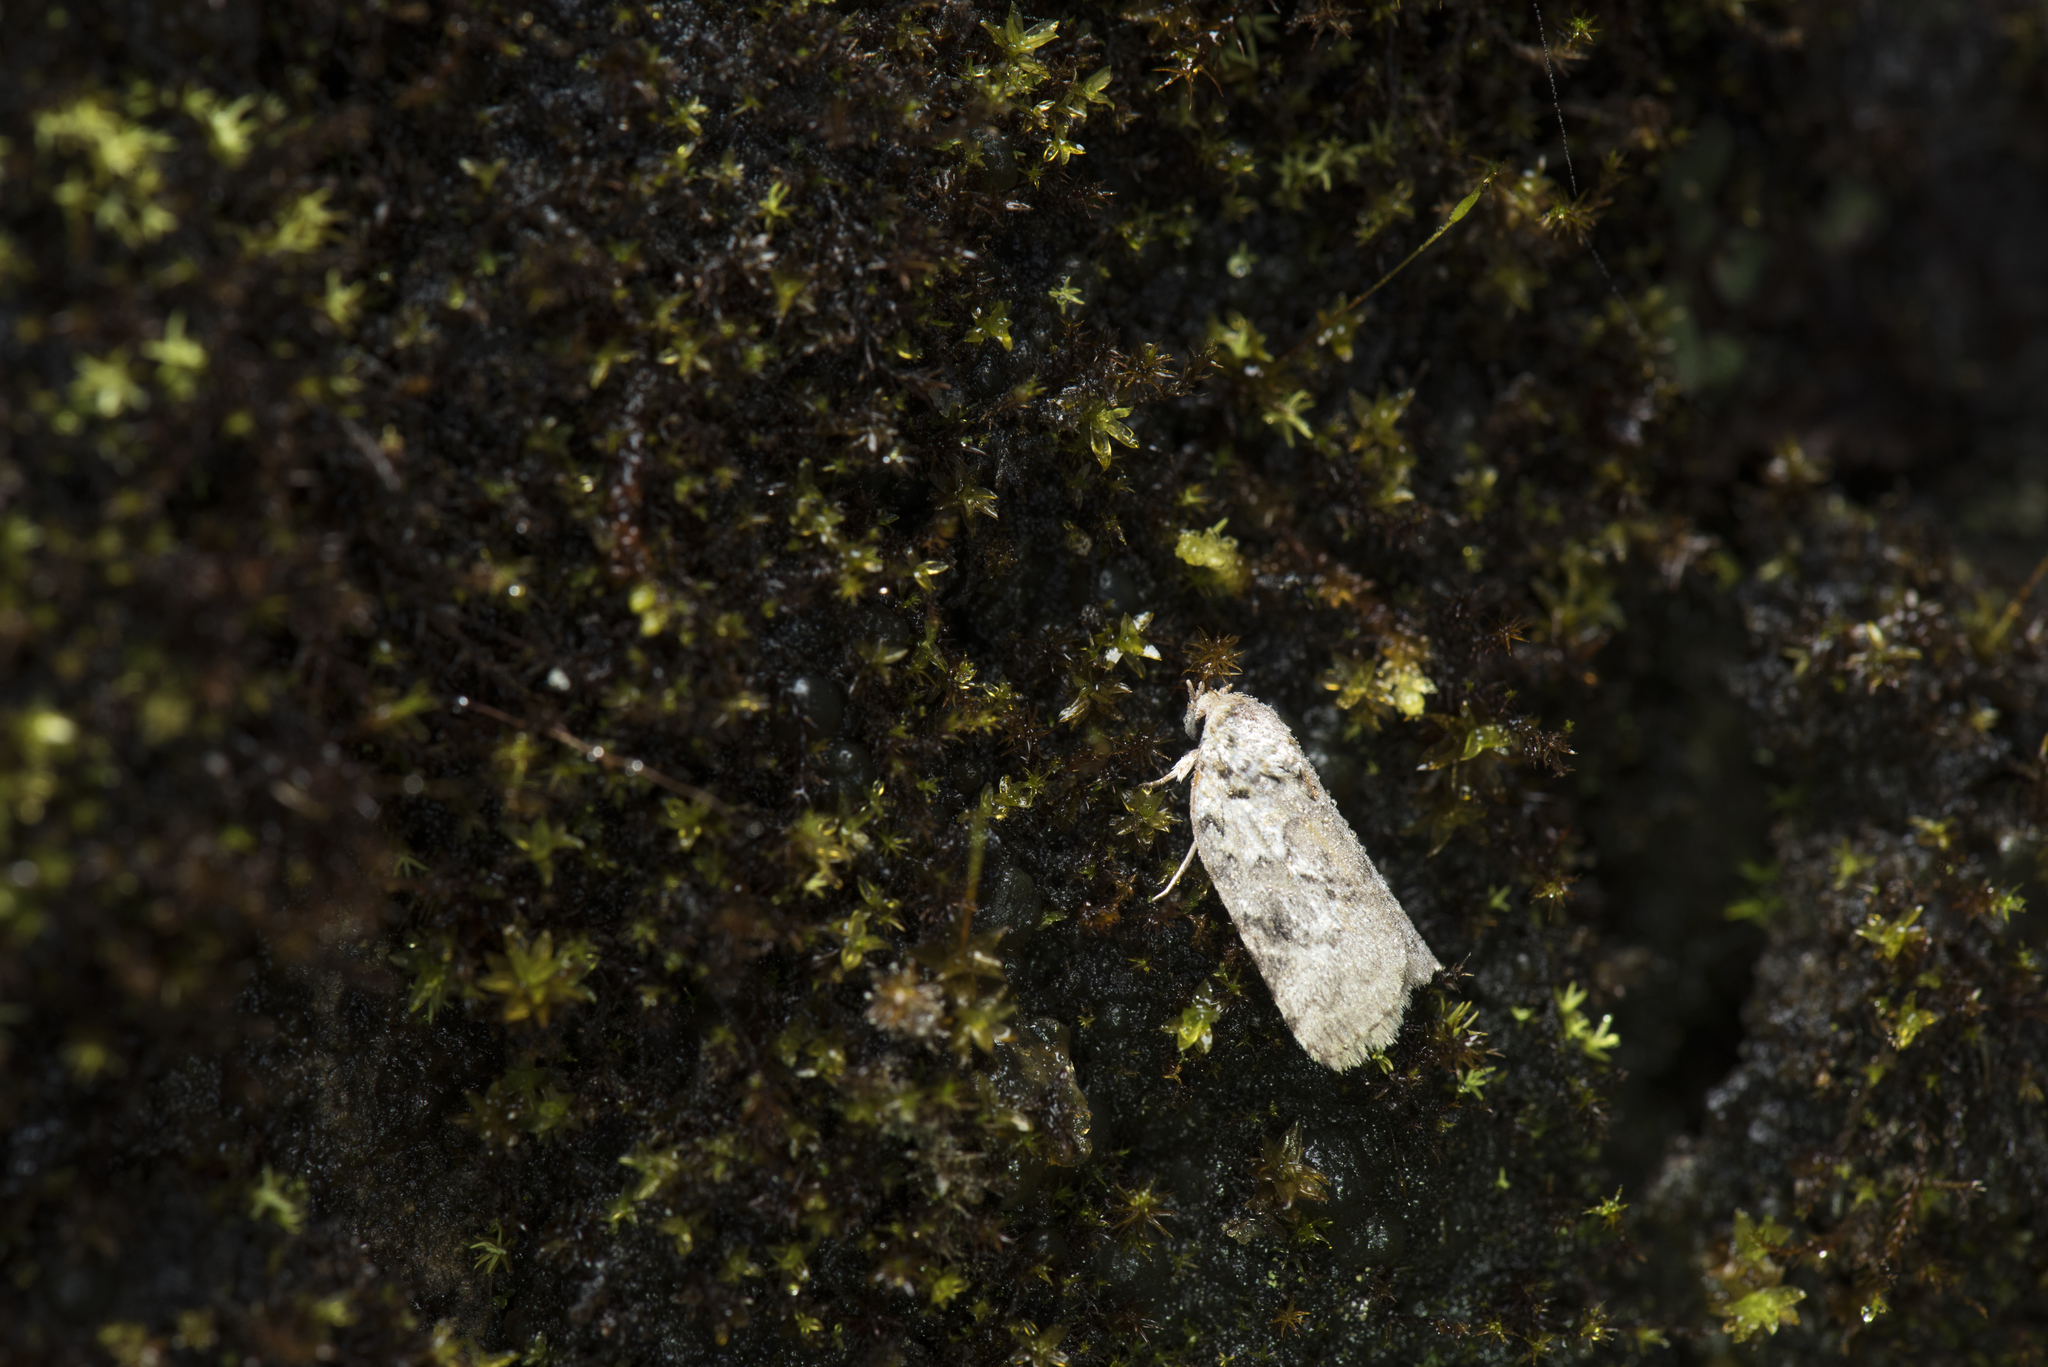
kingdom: Animalia
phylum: Arthropoda
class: Insecta
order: Lepidoptera
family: Nolidae
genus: Garella
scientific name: Garella glaucopasta
